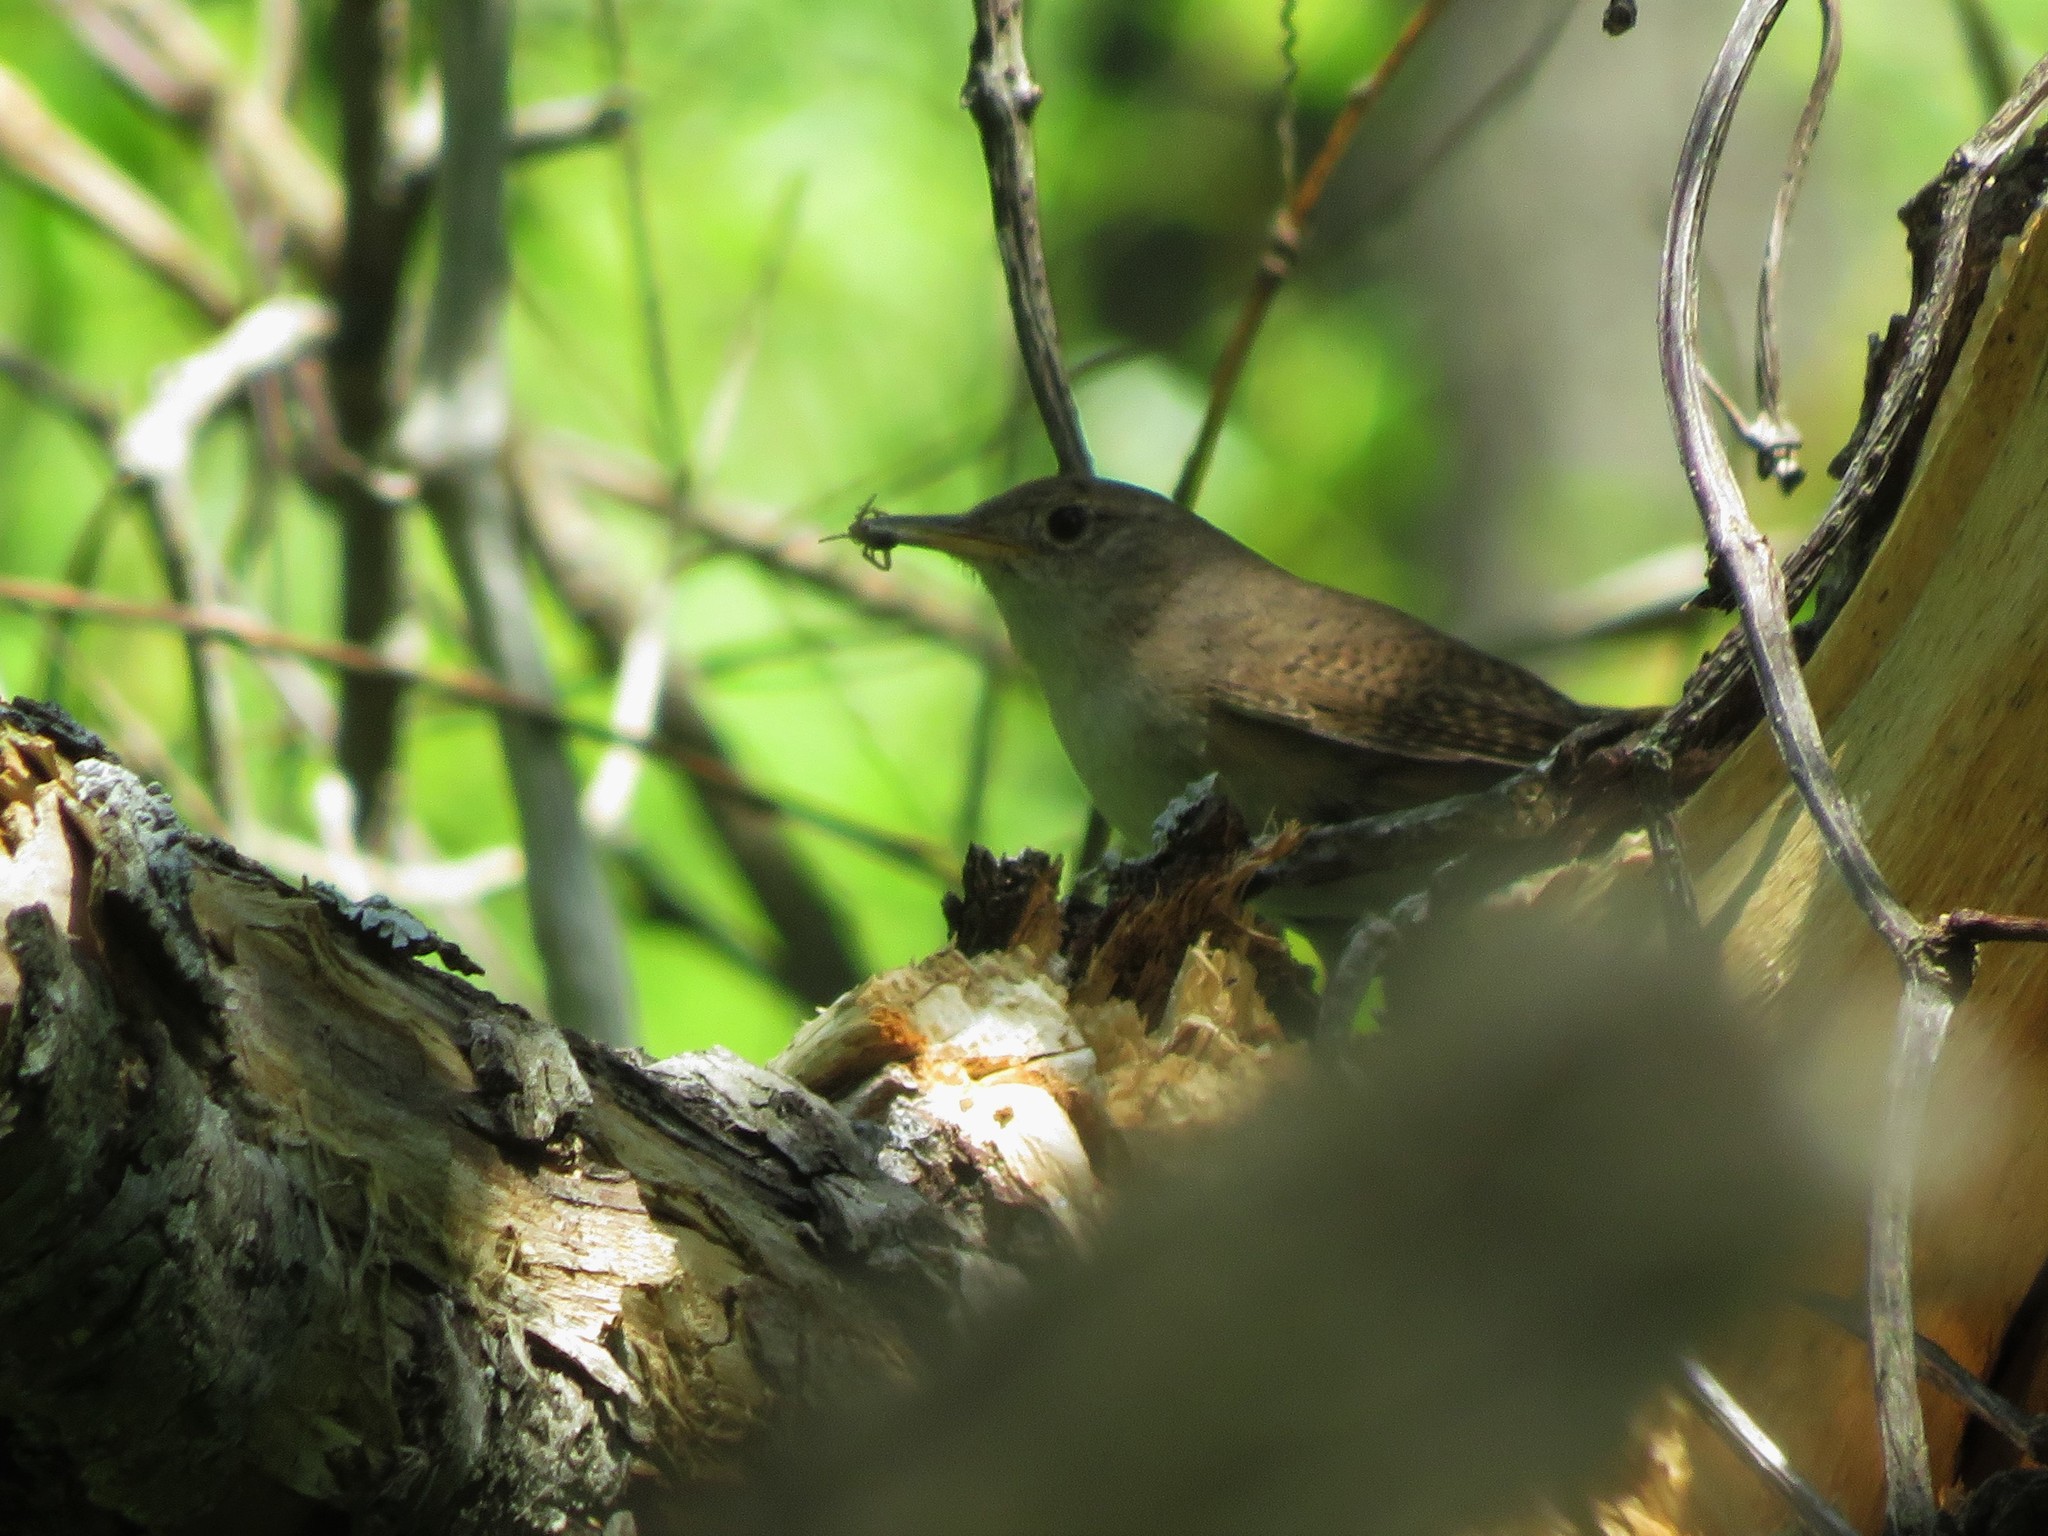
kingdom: Animalia
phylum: Chordata
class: Aves
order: Passeriformes
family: Troglodytidae
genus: Troglodytes
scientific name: Troglodytes aedon
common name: House wren
